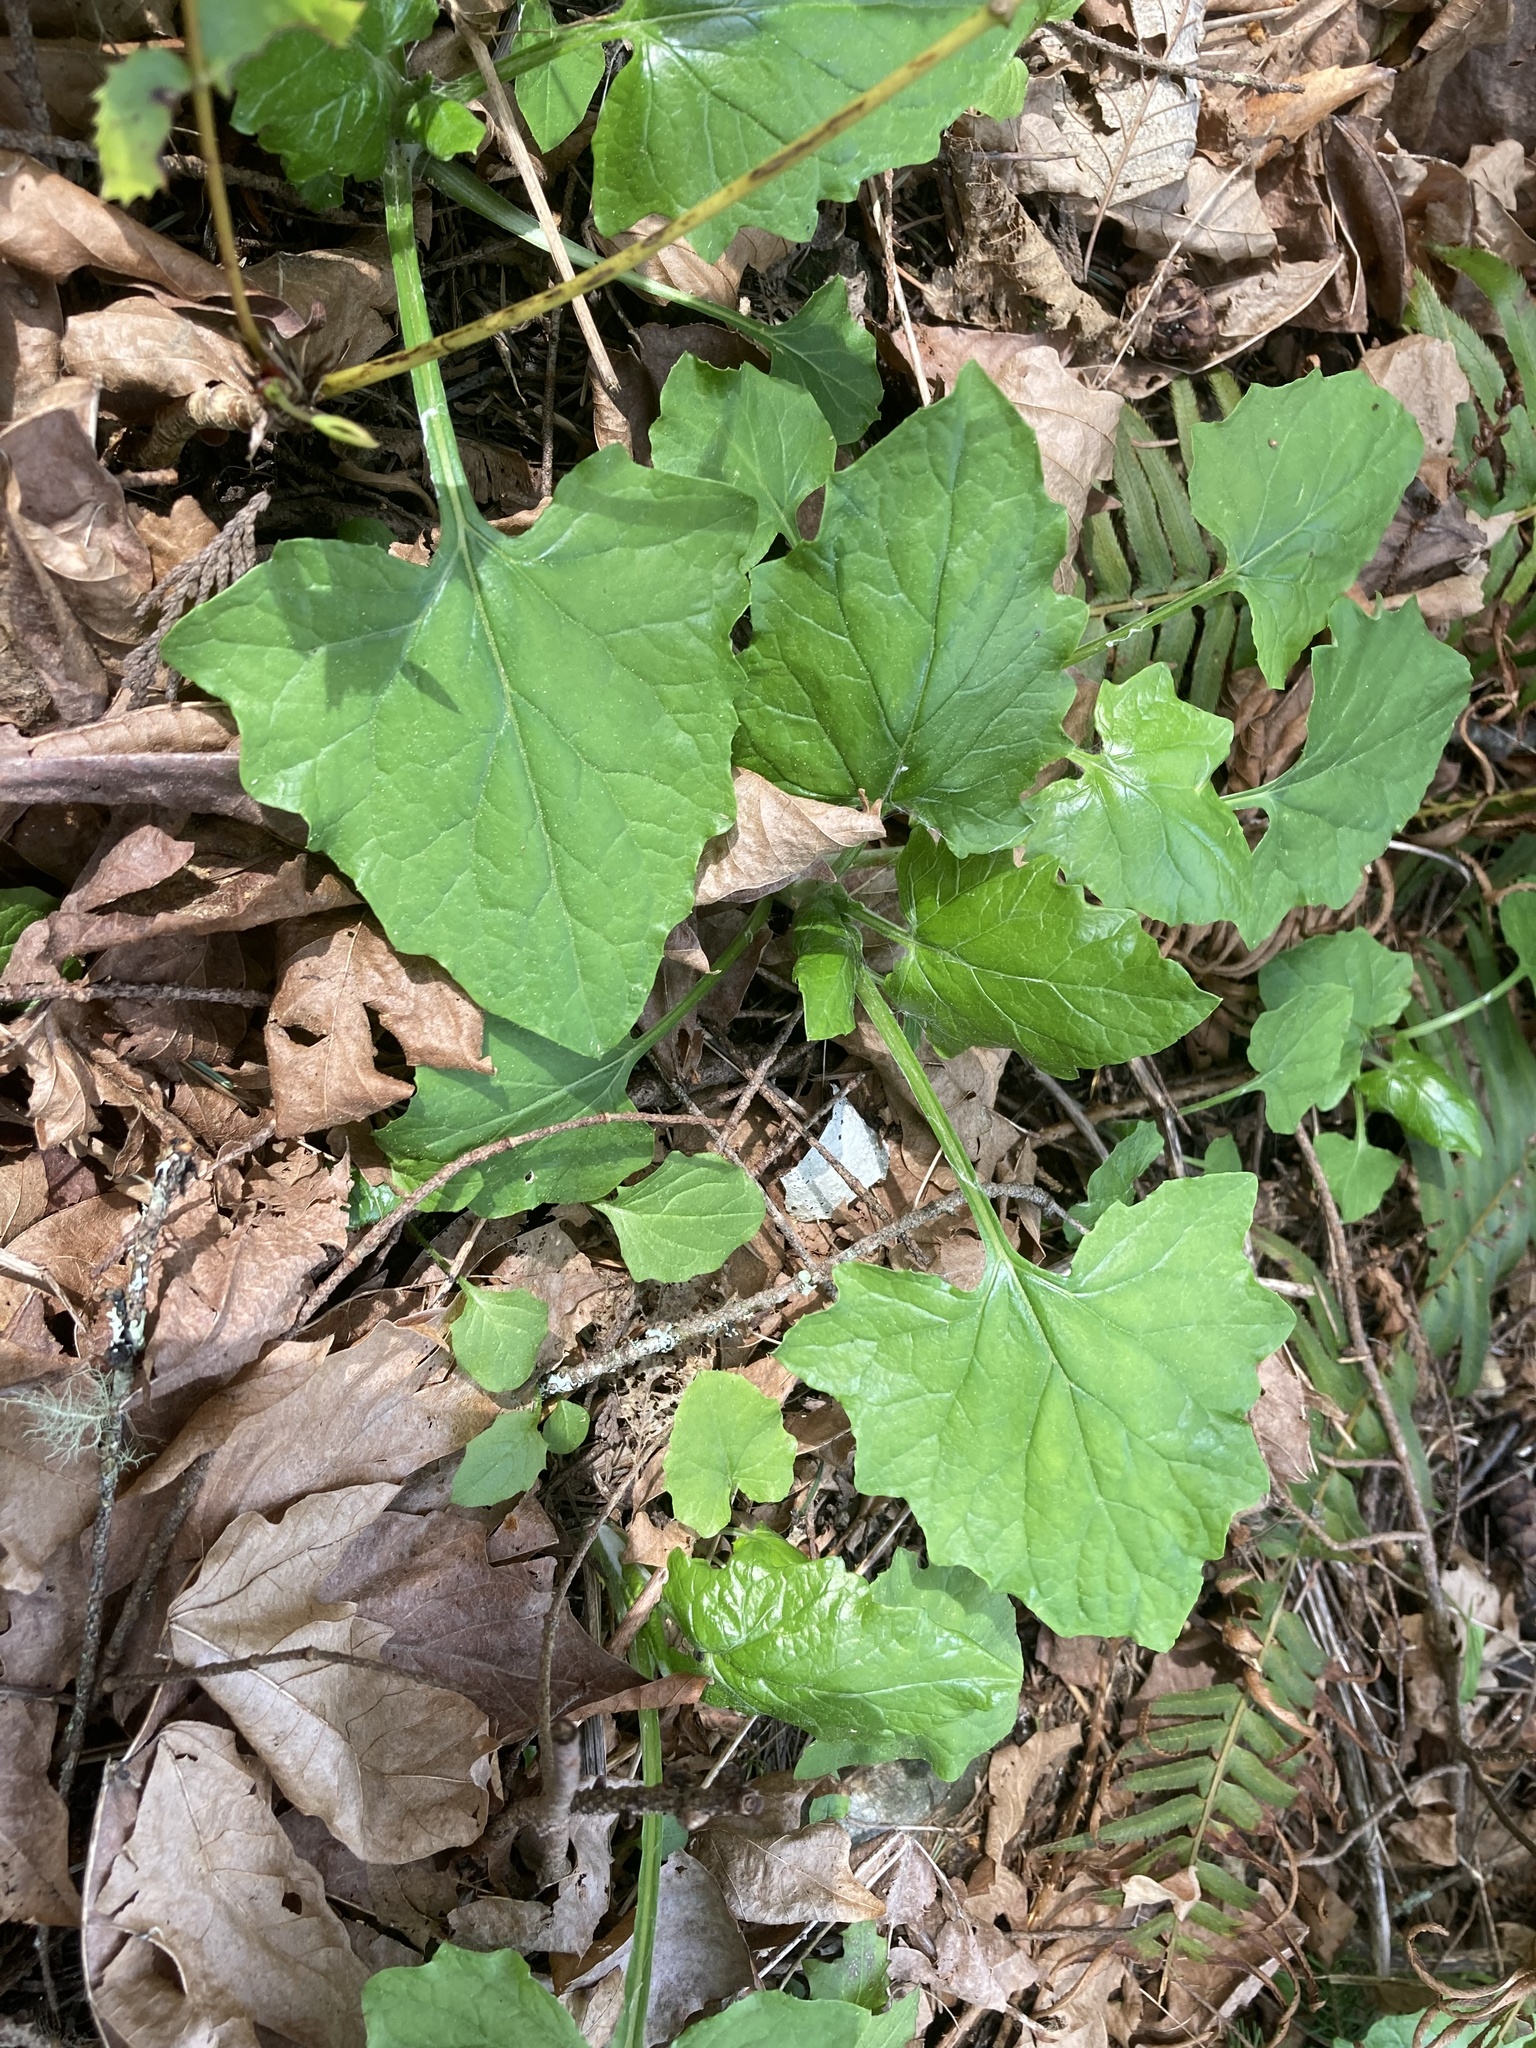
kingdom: Plantae
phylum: Tracheophyta
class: Magnoliopsida
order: Asterales
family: Asteraceae
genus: Adenocaulon
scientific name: Adenocaulon bicolor
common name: Trailplant
